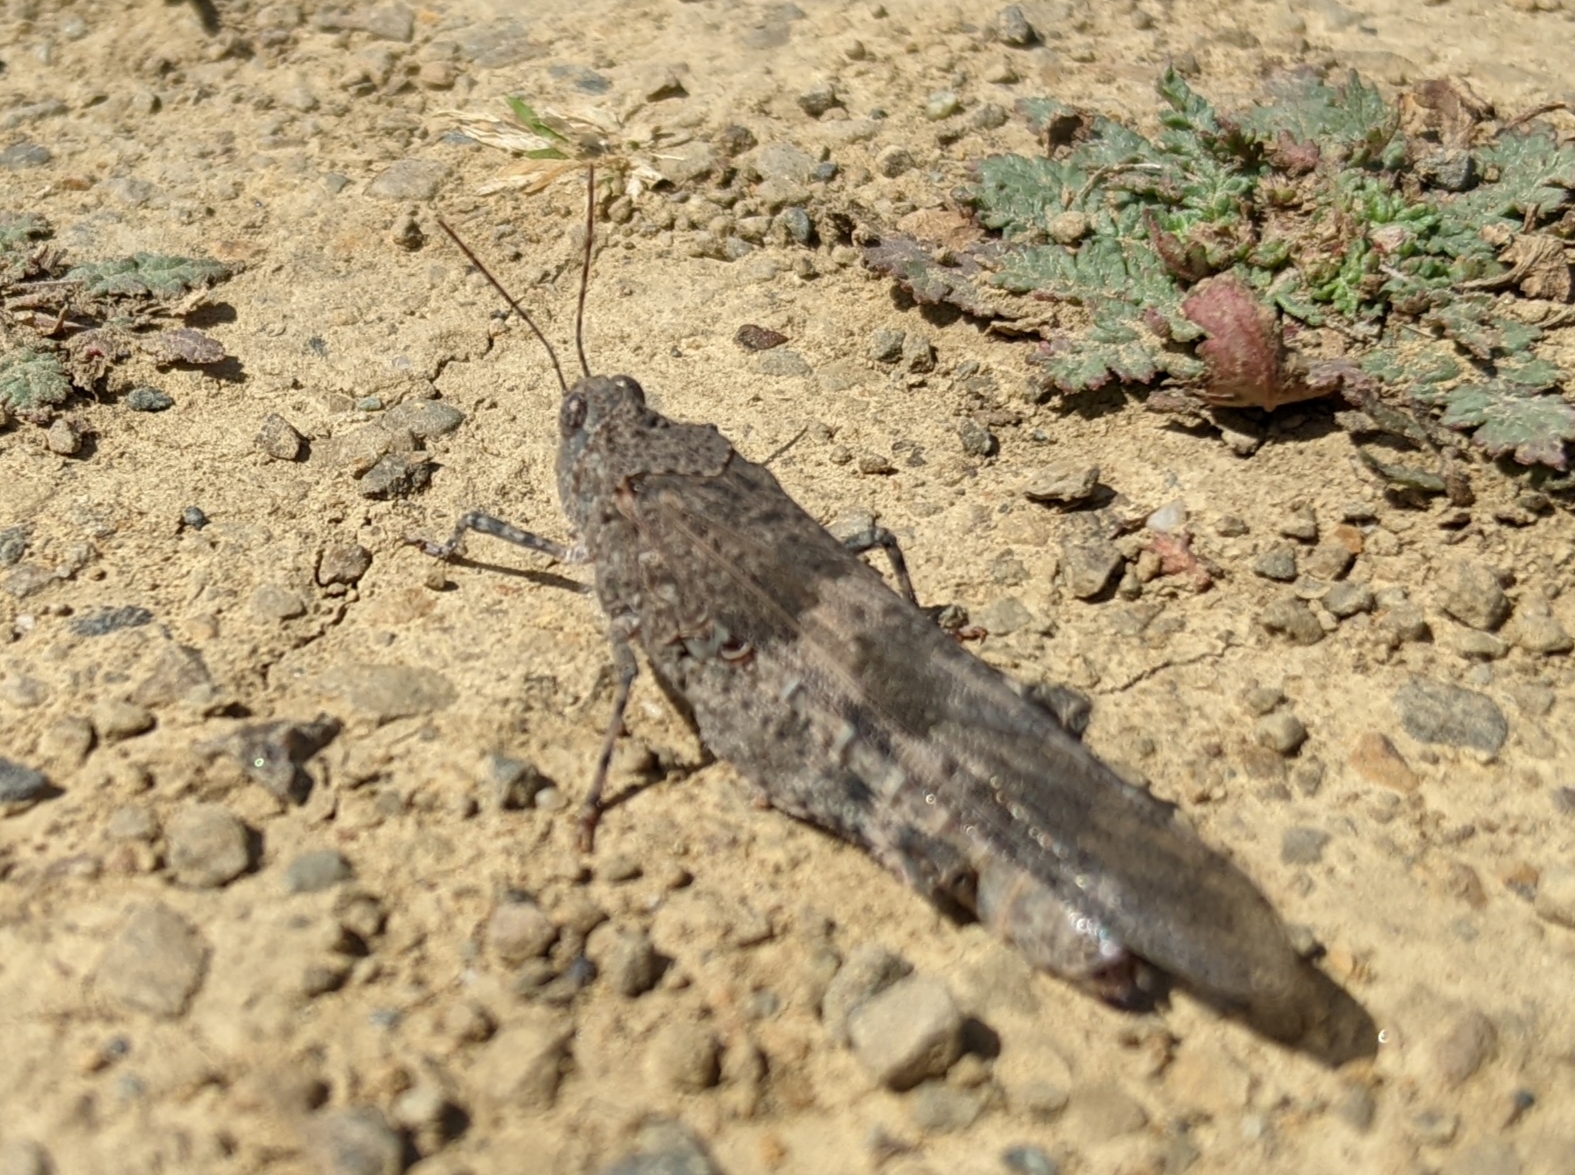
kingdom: Animalia
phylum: Arthropoda
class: Insecta
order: Orthoptera
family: Acrididae
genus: Trimerotropis
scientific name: Trimerotropis pallidipennis
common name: Pallid-winged grasshopper
